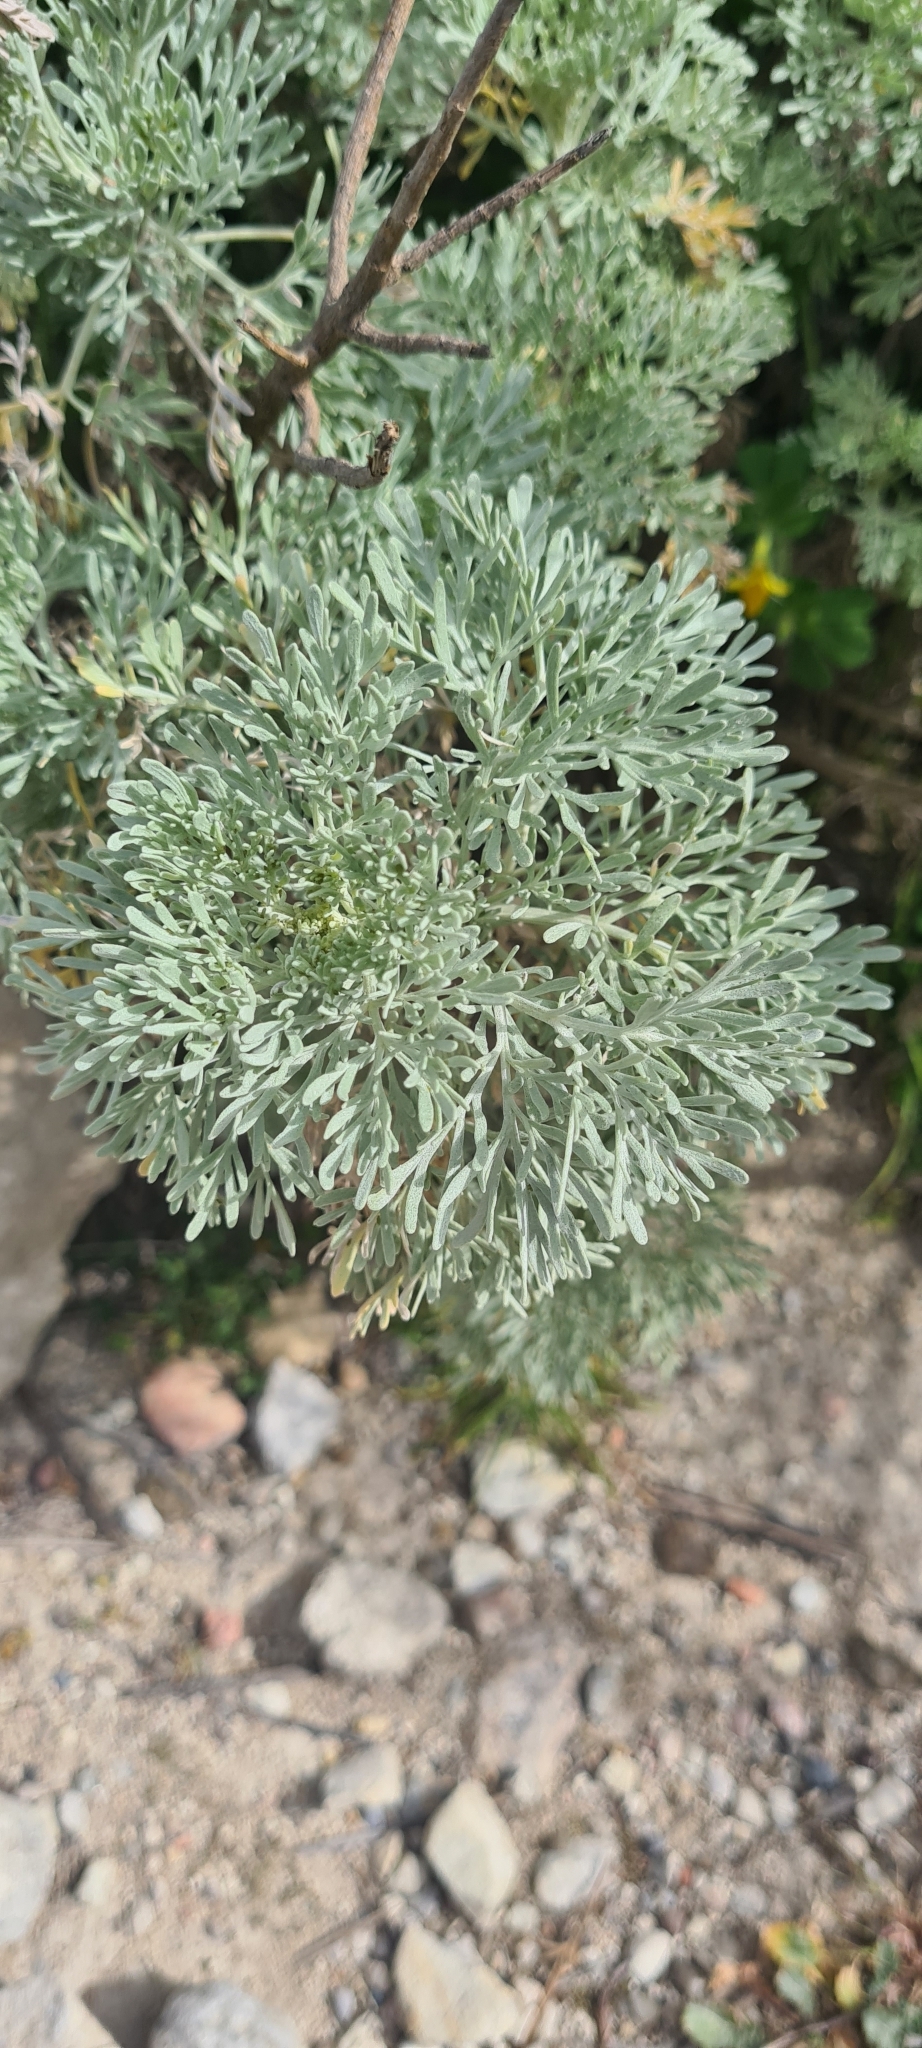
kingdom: Plantae
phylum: Tracheophyta
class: Magnoliopsida
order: Asterales
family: Asteraceae
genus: Artemisia
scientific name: Artemisia arborescens
